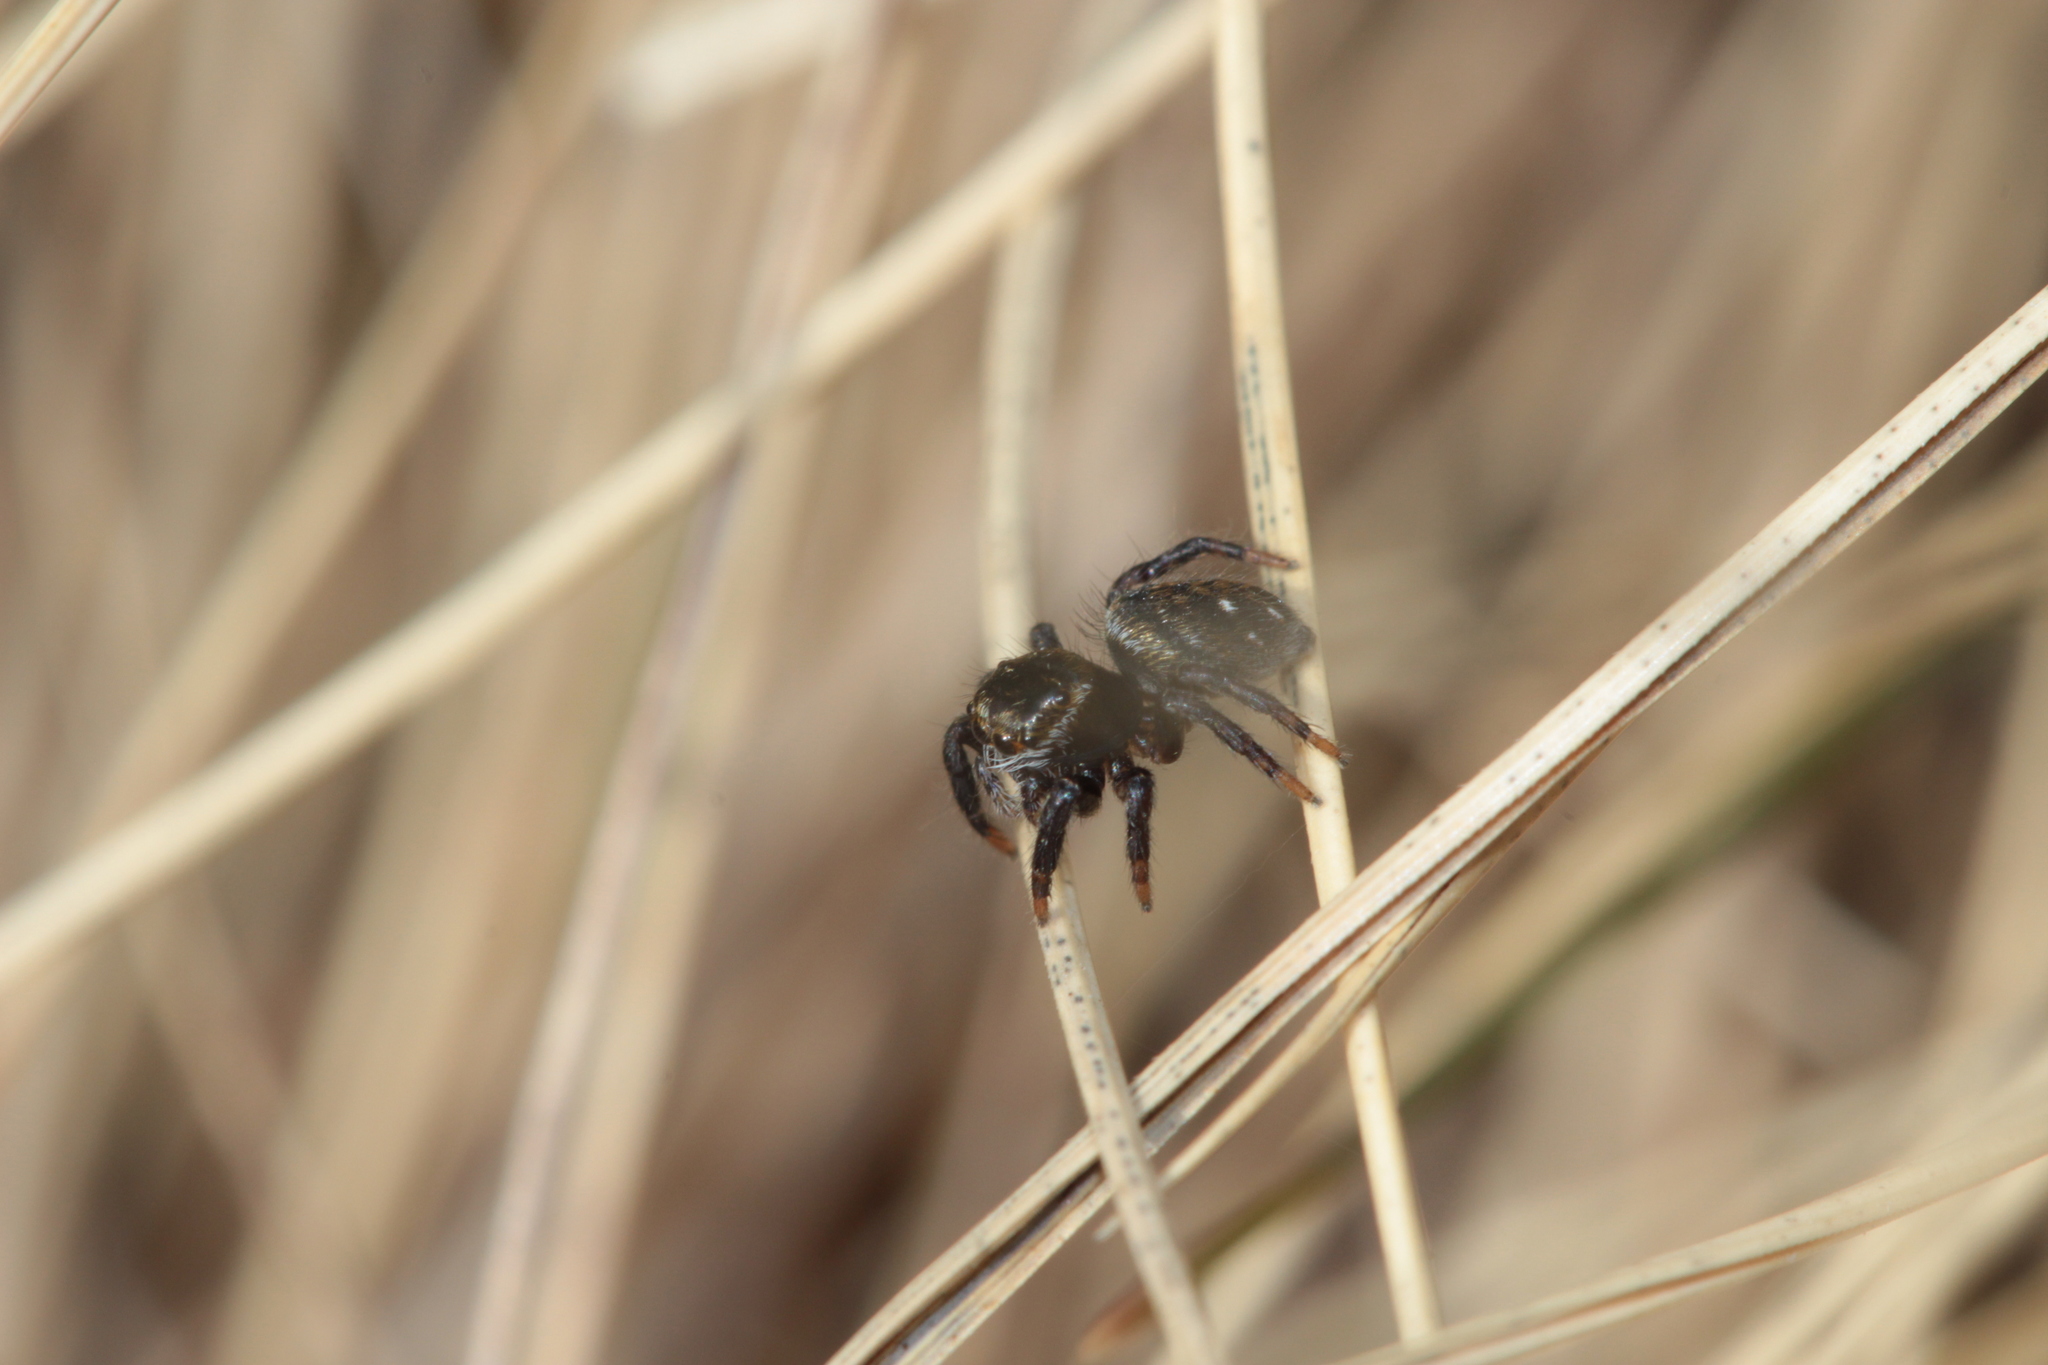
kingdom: Animalia
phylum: Arthropoda
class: Arachnida
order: Araneae
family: Salticidae
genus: Evarcha
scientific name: Evarcha arcuata
